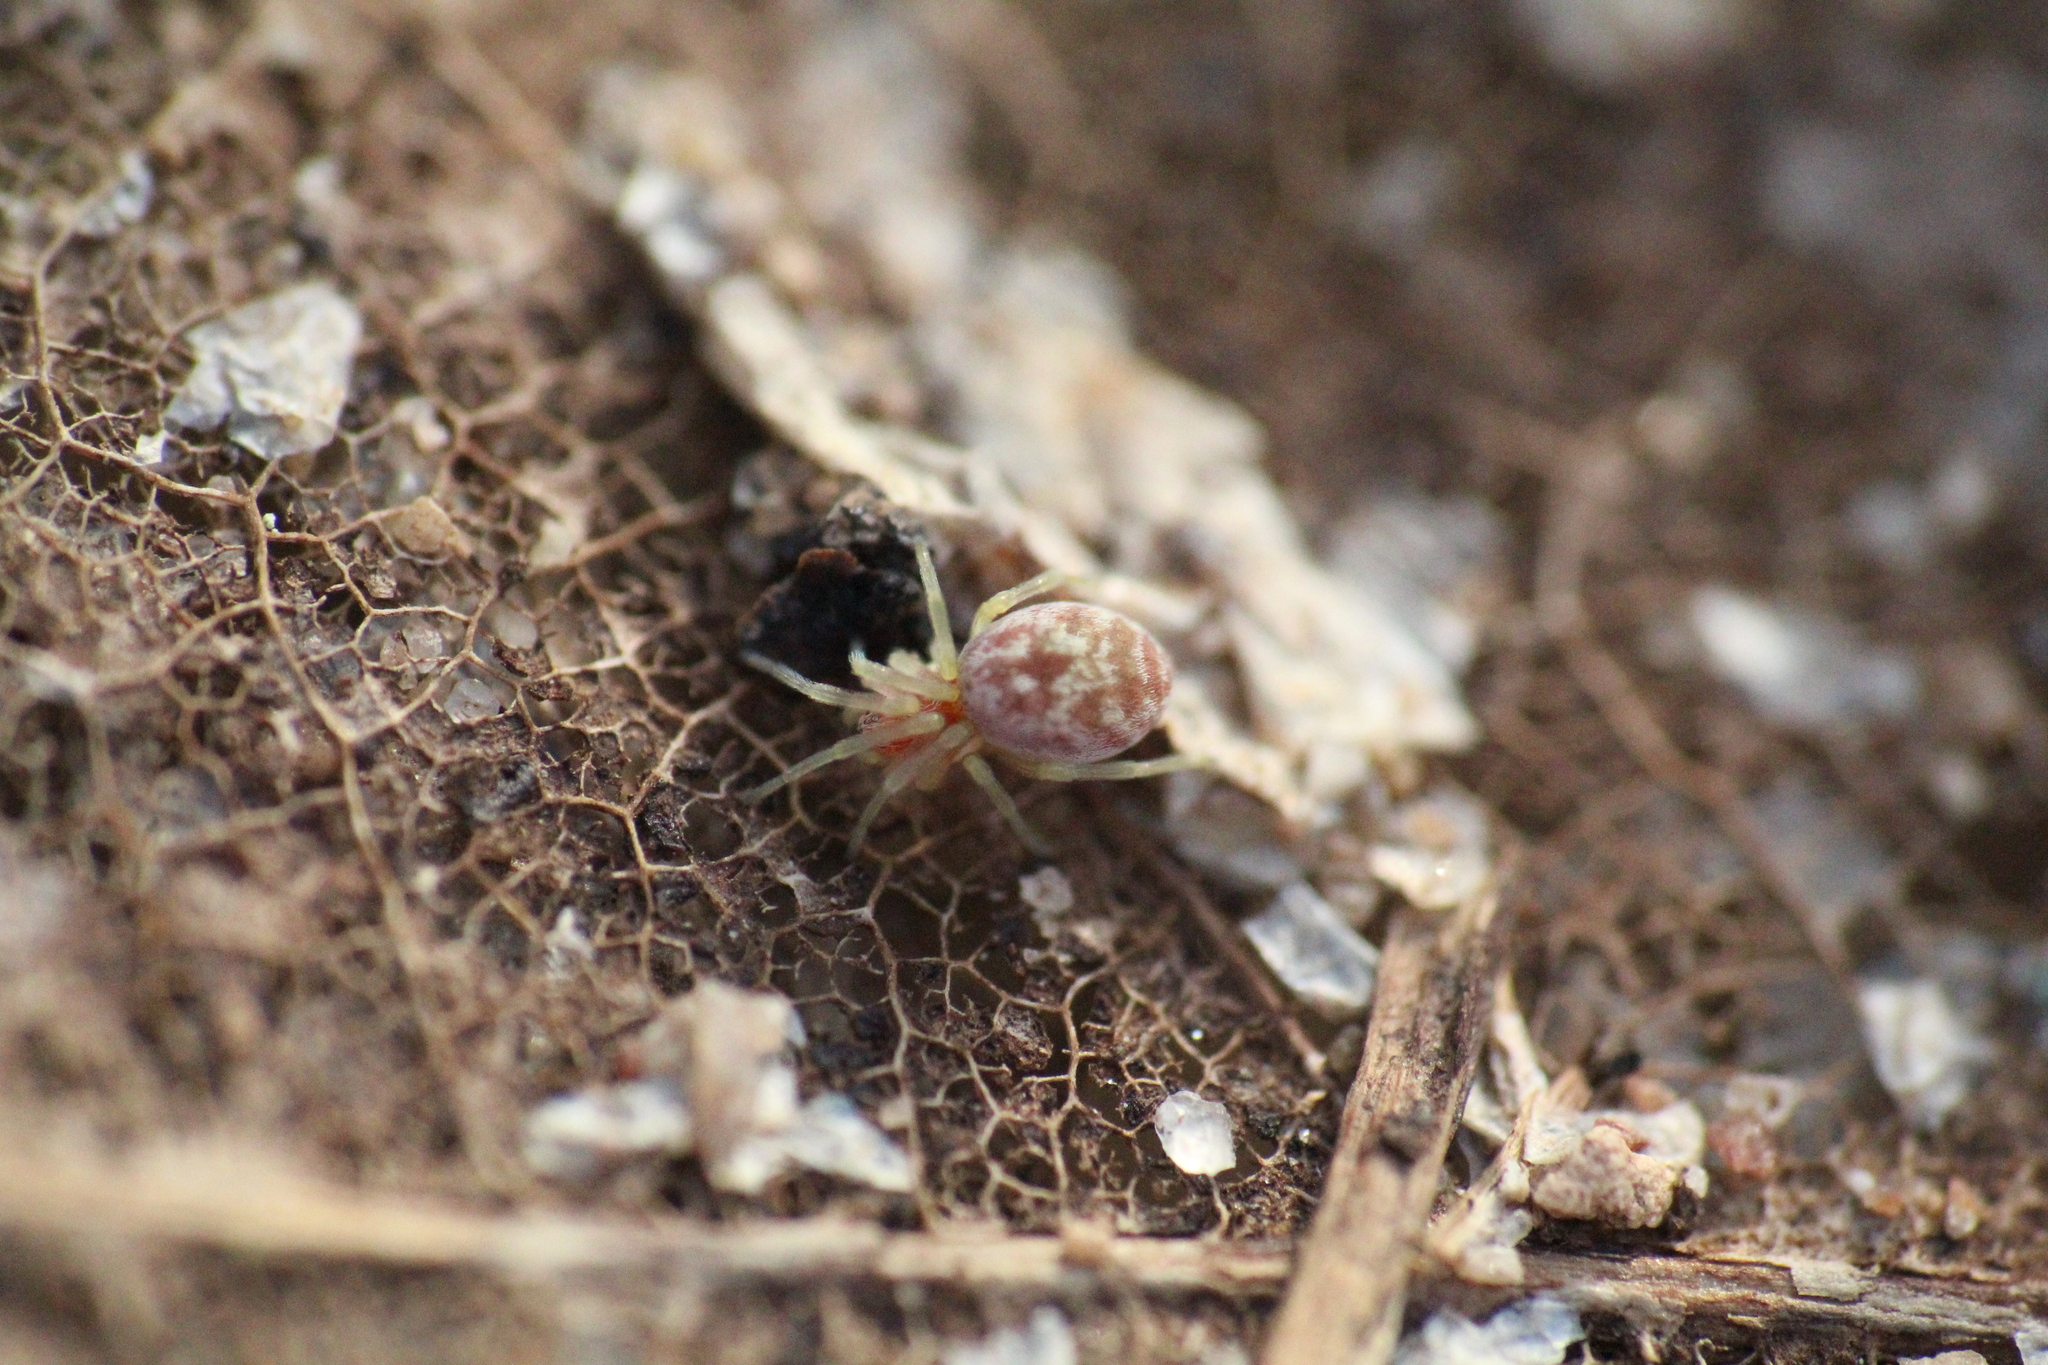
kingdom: Animalia
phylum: Arthropoda
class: Arachnida
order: Araneae
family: Dictynidae
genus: Nigma
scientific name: Nigma flavescens
